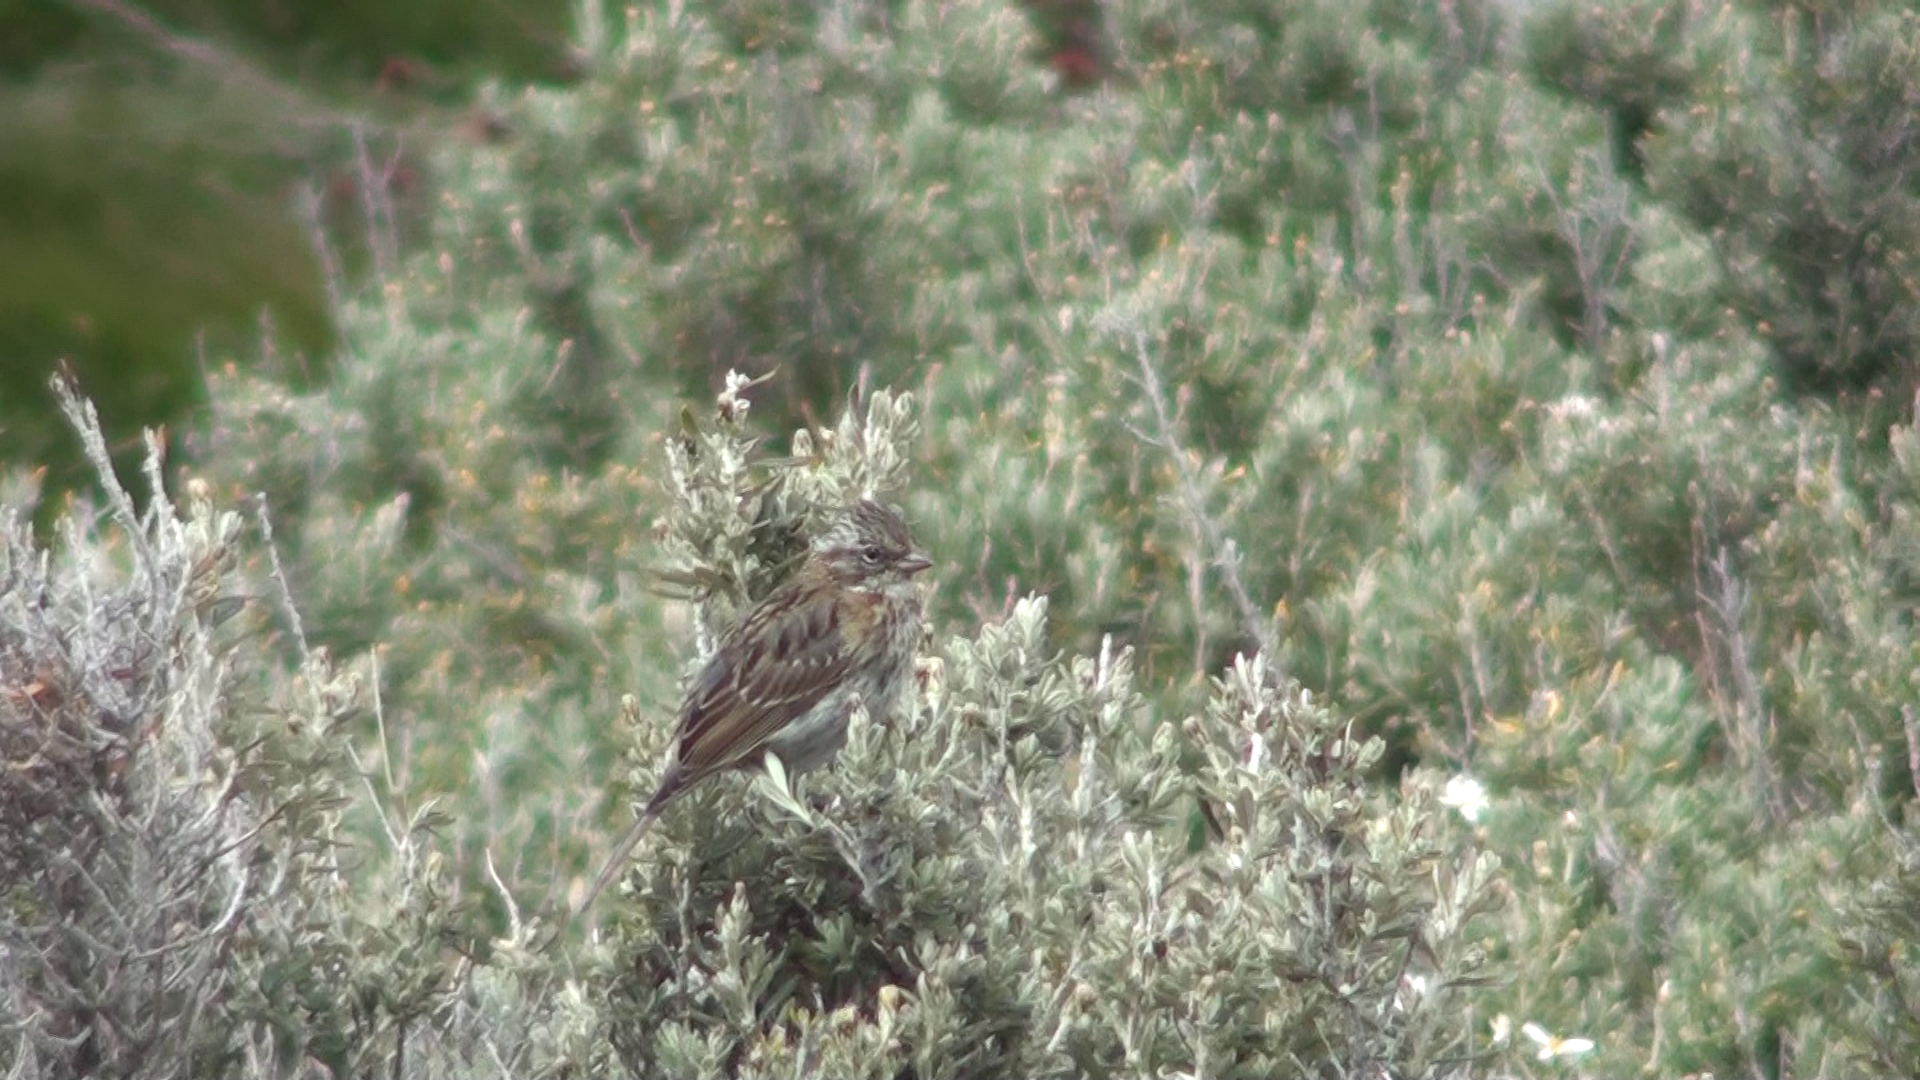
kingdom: Animalia
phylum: Chordata
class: Aves
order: Passeriformes
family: Passerellidae
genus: Zonotrichia
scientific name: Zonotrichia capensis
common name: Rufous-collared sparrow
